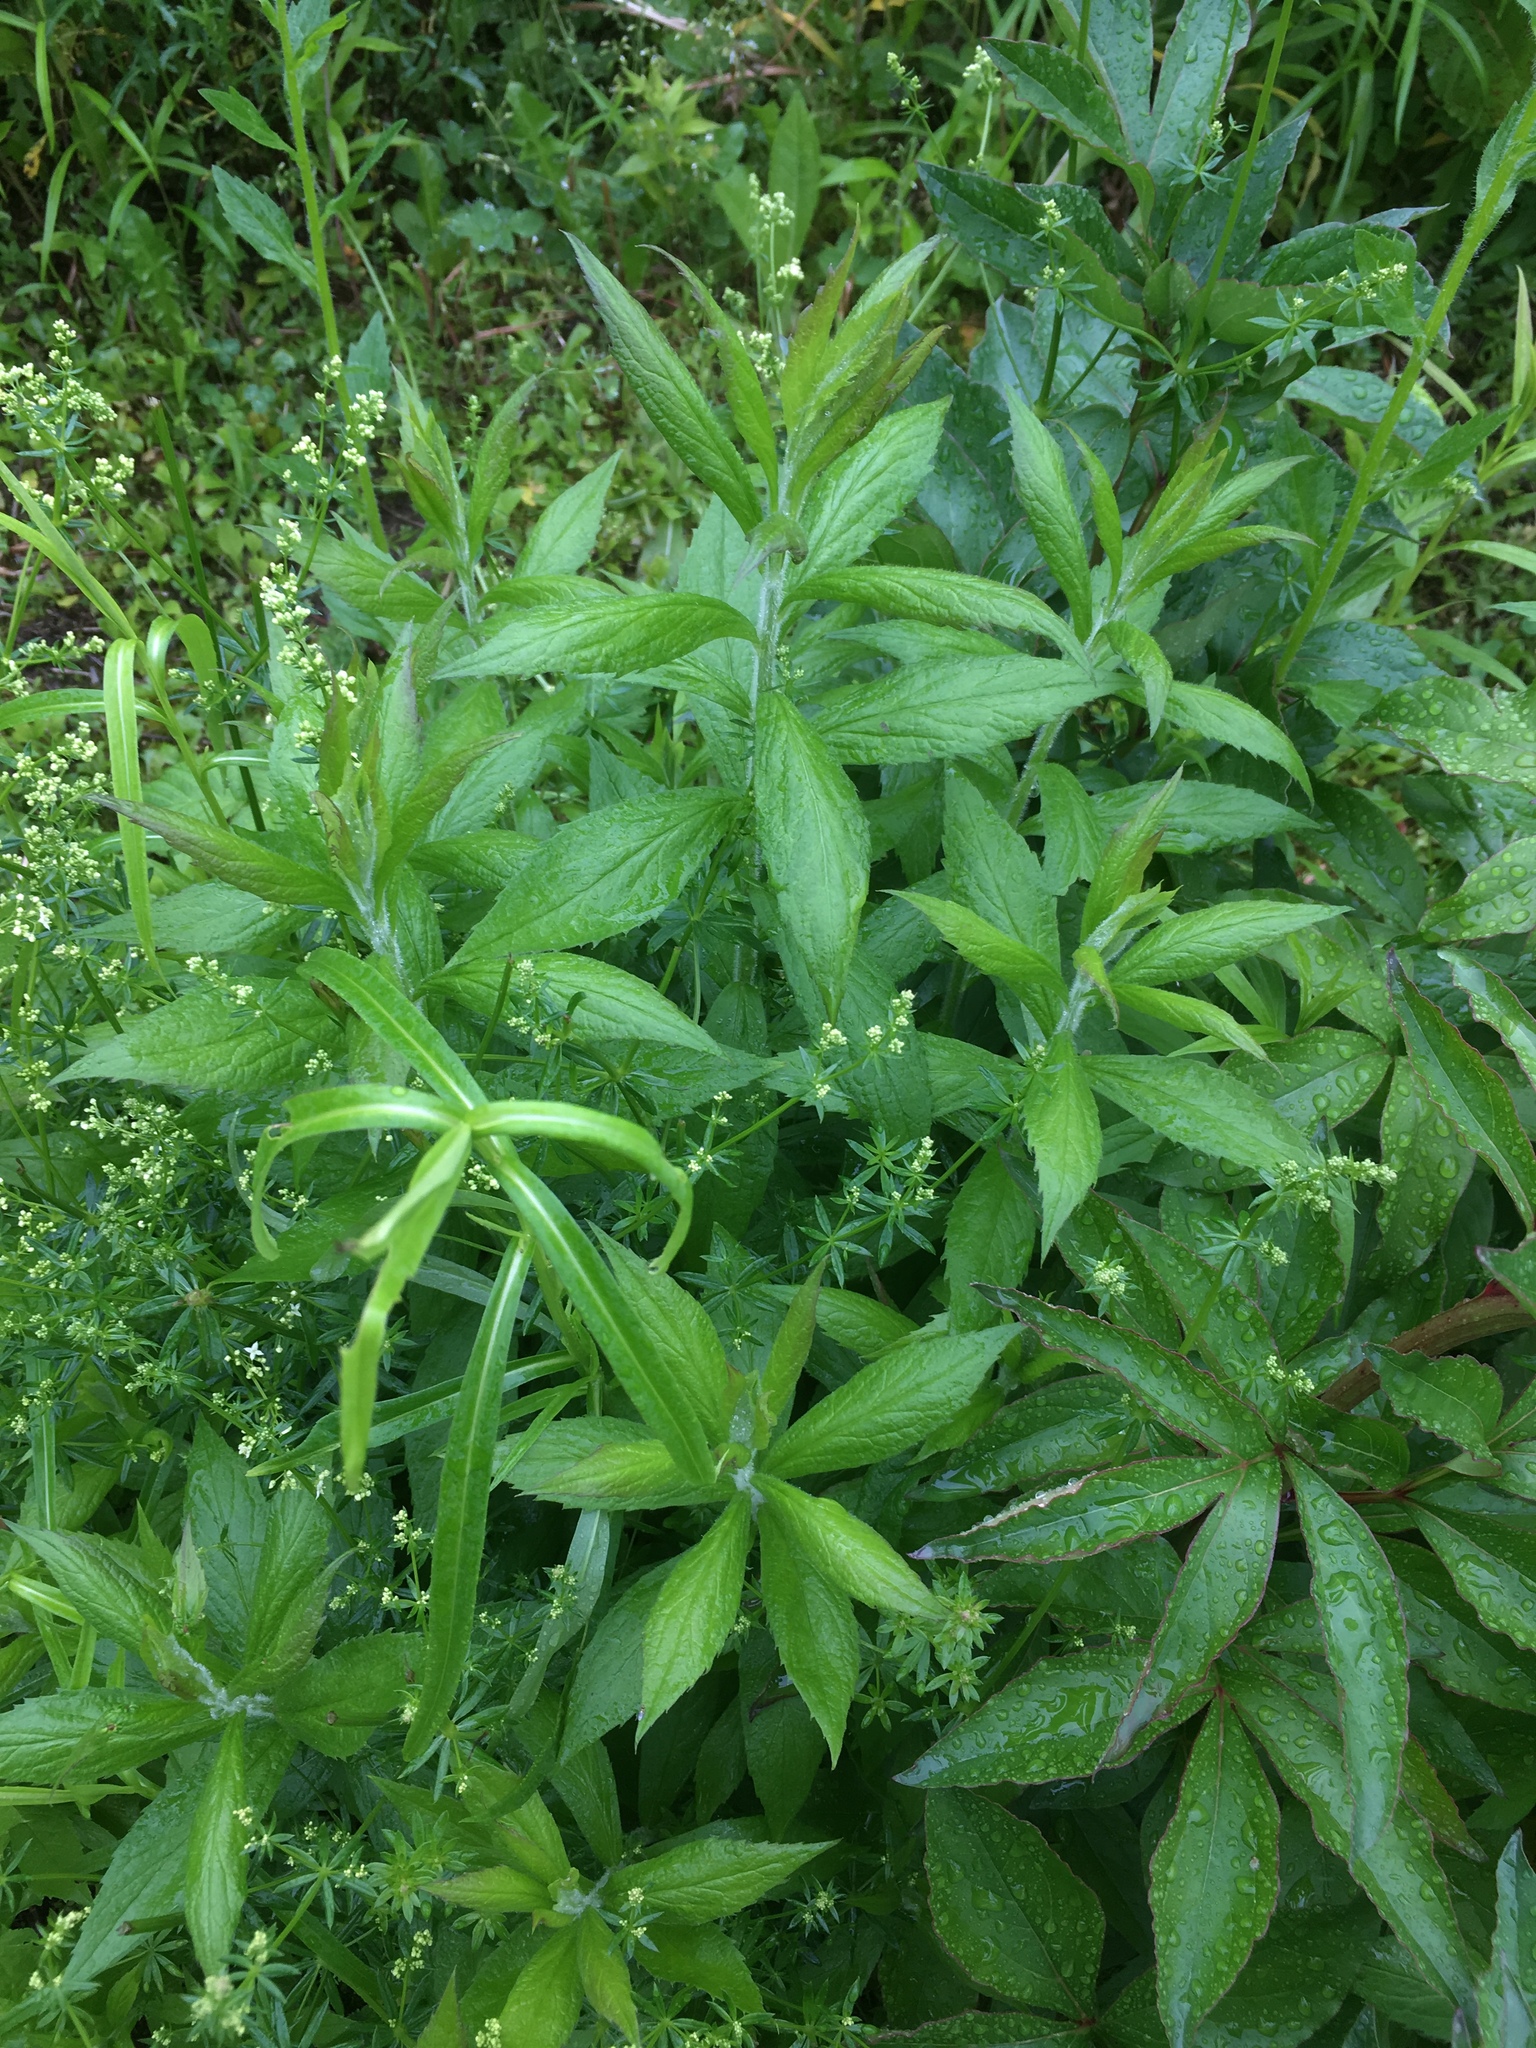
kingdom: Plantae
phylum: Tracheophyta
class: Magnoliopsida
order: Asterales
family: Asteraceae
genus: Solidago
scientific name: Solidago rugosa
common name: Rough-stemmed goldenrod
